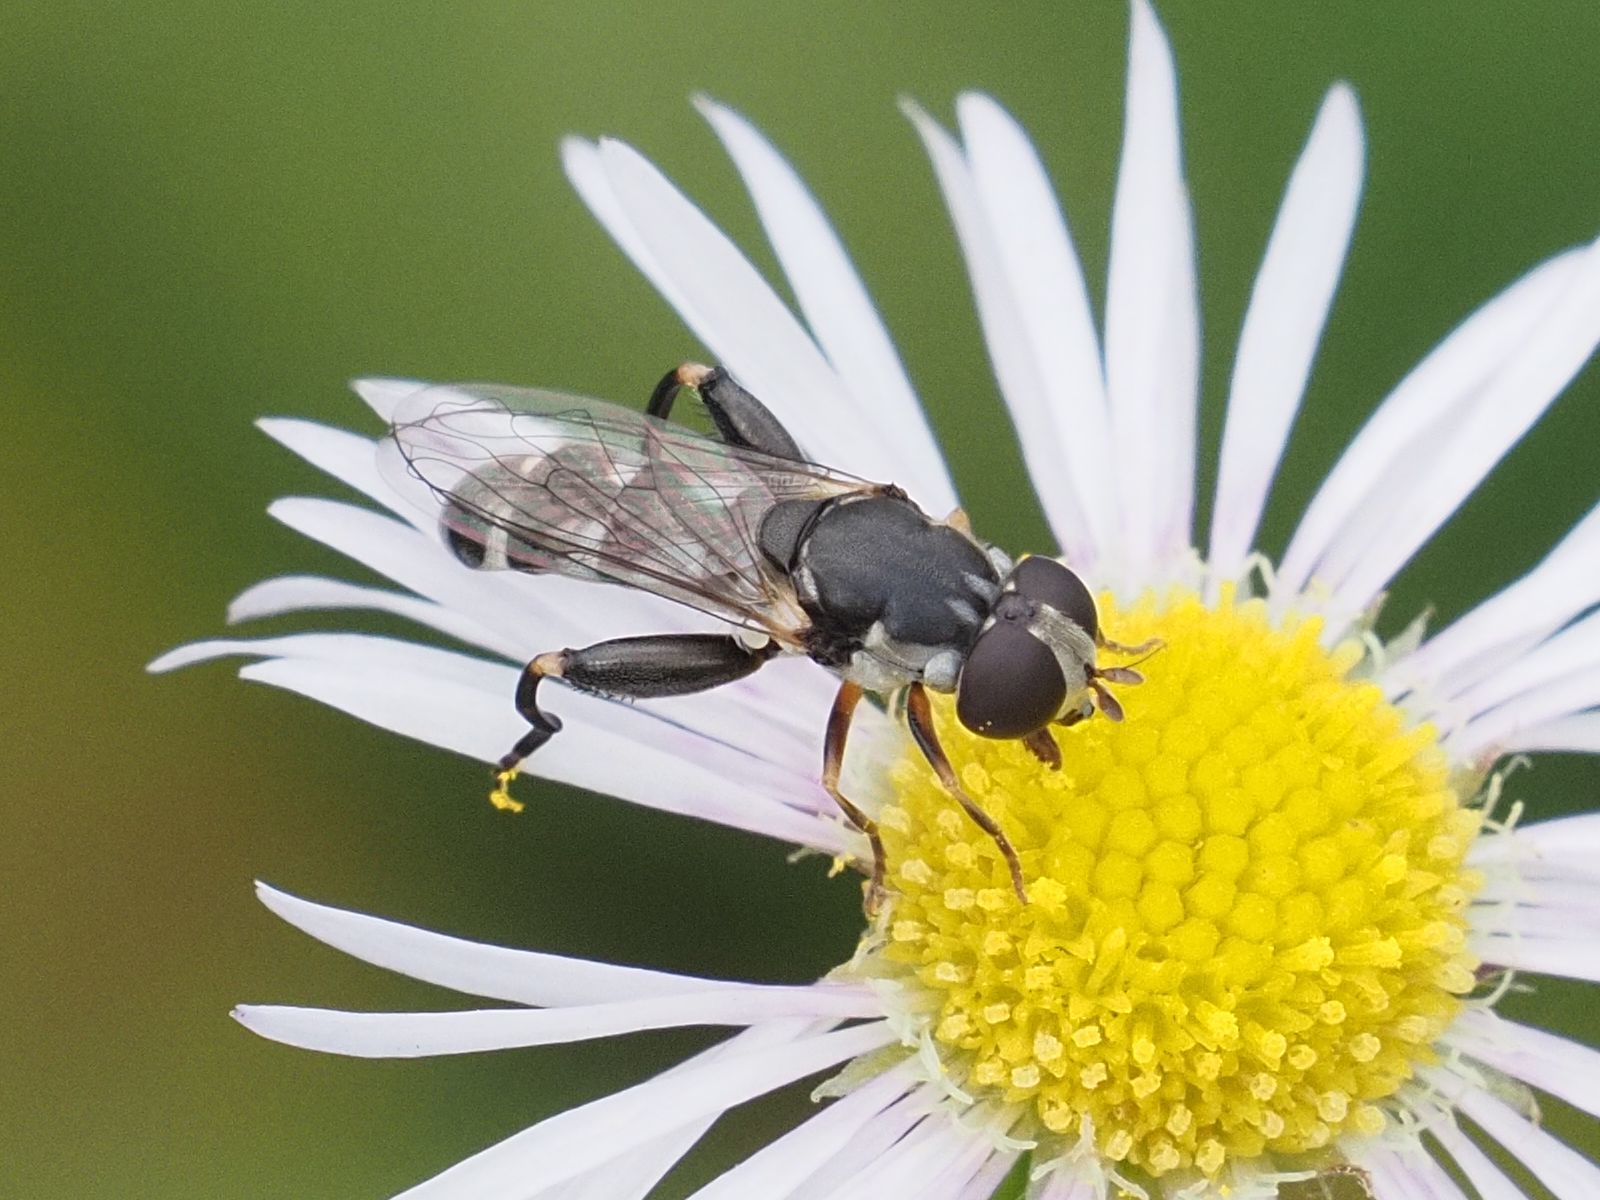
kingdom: Animalia
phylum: Arthropoda
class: Insecta
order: Diptera
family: Syrphidae
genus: Syritta
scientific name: Syritta pipiens
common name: Hover fly
